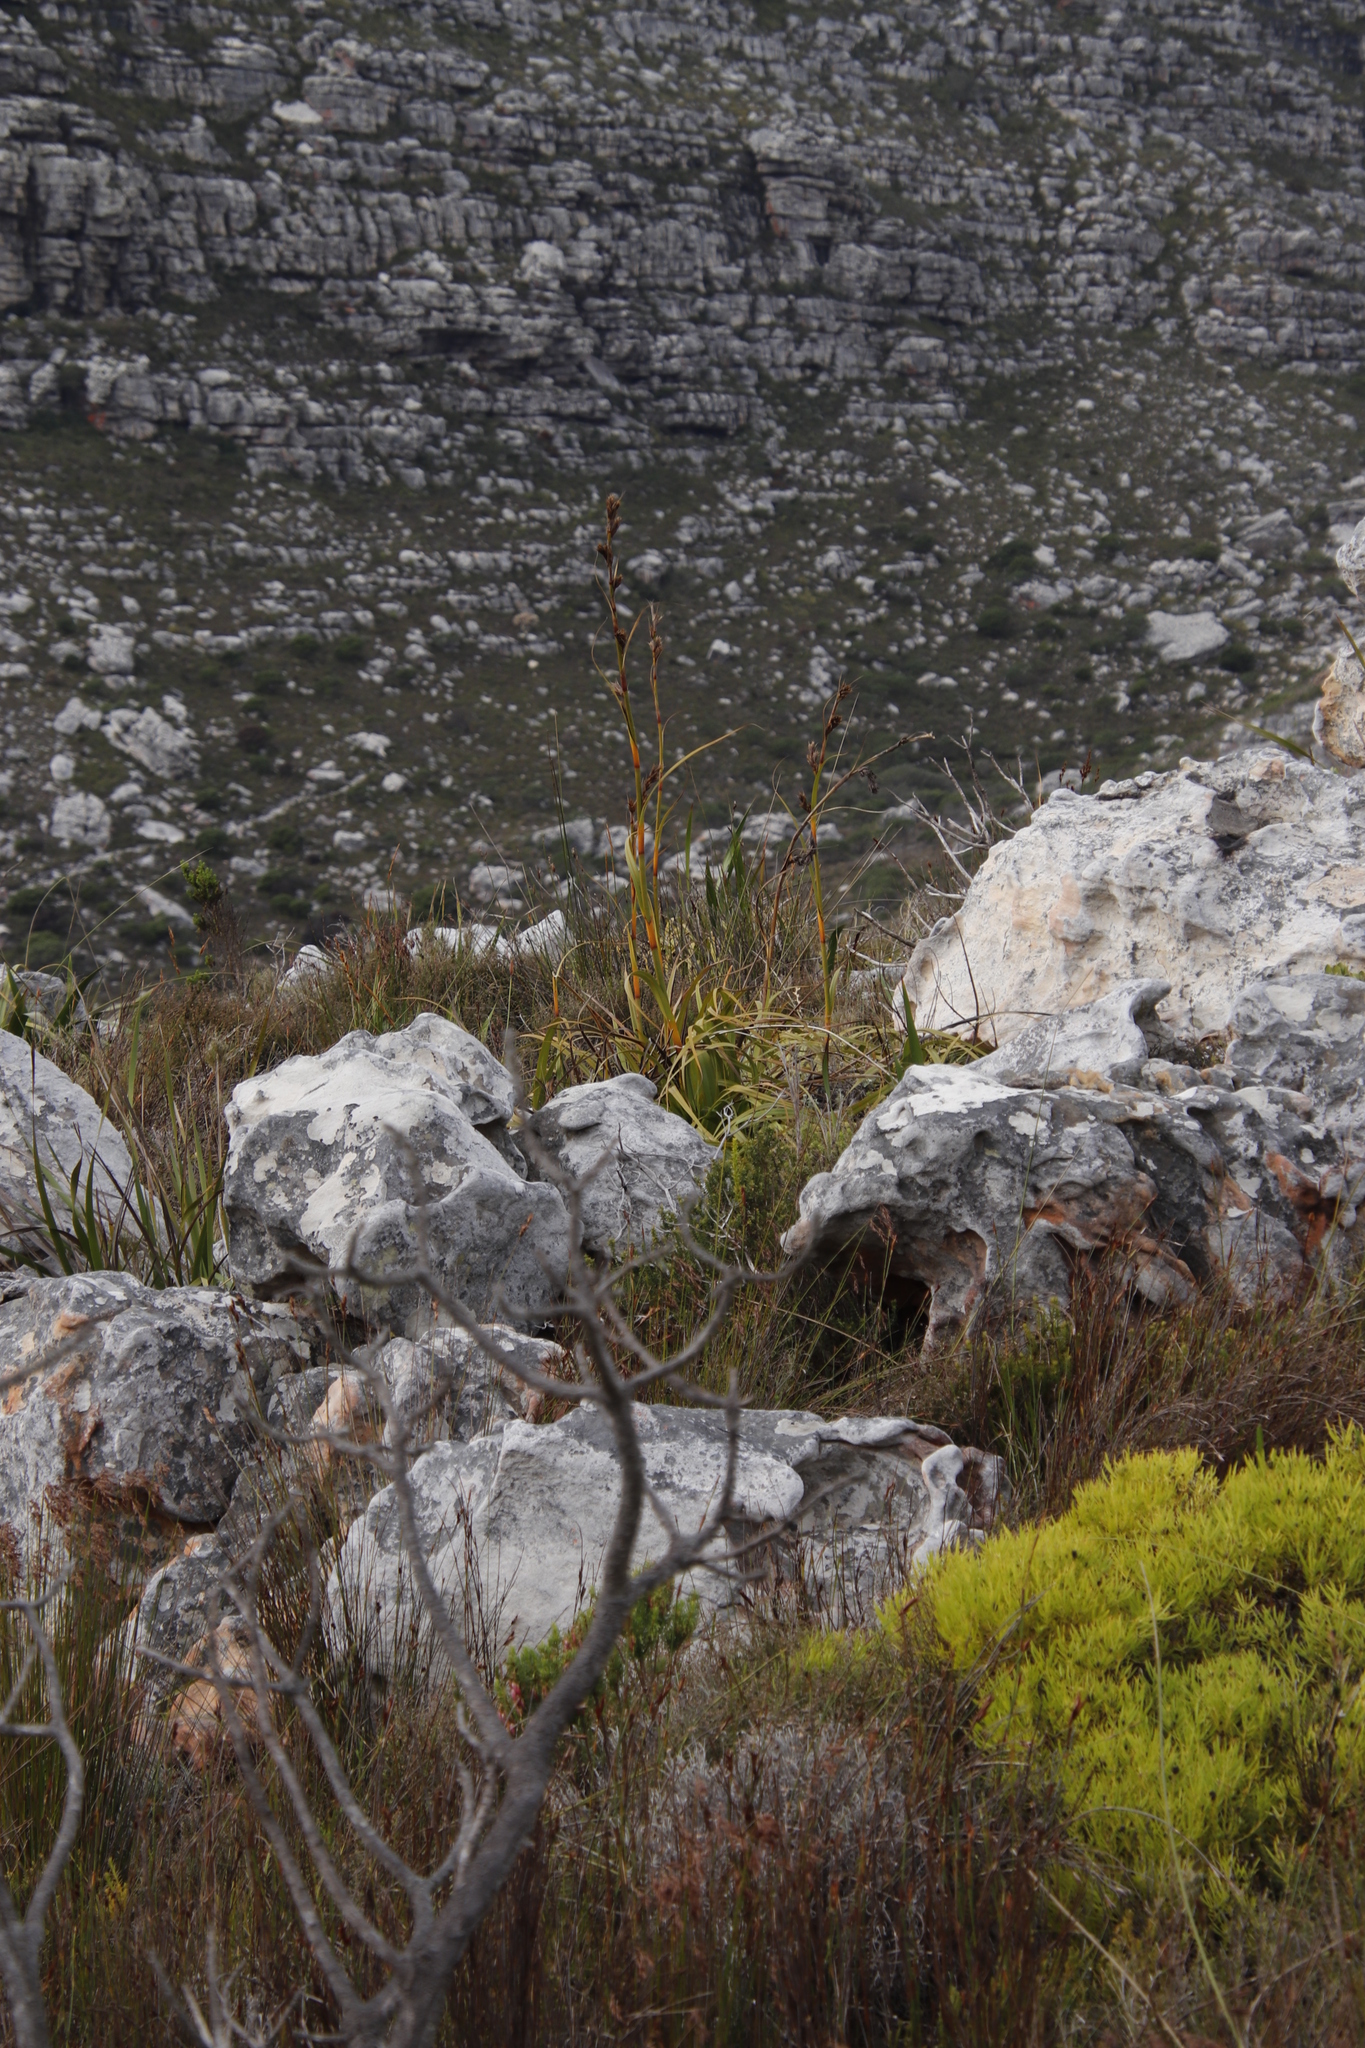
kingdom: Plantae
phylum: Tracheophyta
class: Liliopsida
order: Poales
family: Cyperaceae
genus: Tetraria
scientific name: Tetraria thermalis
